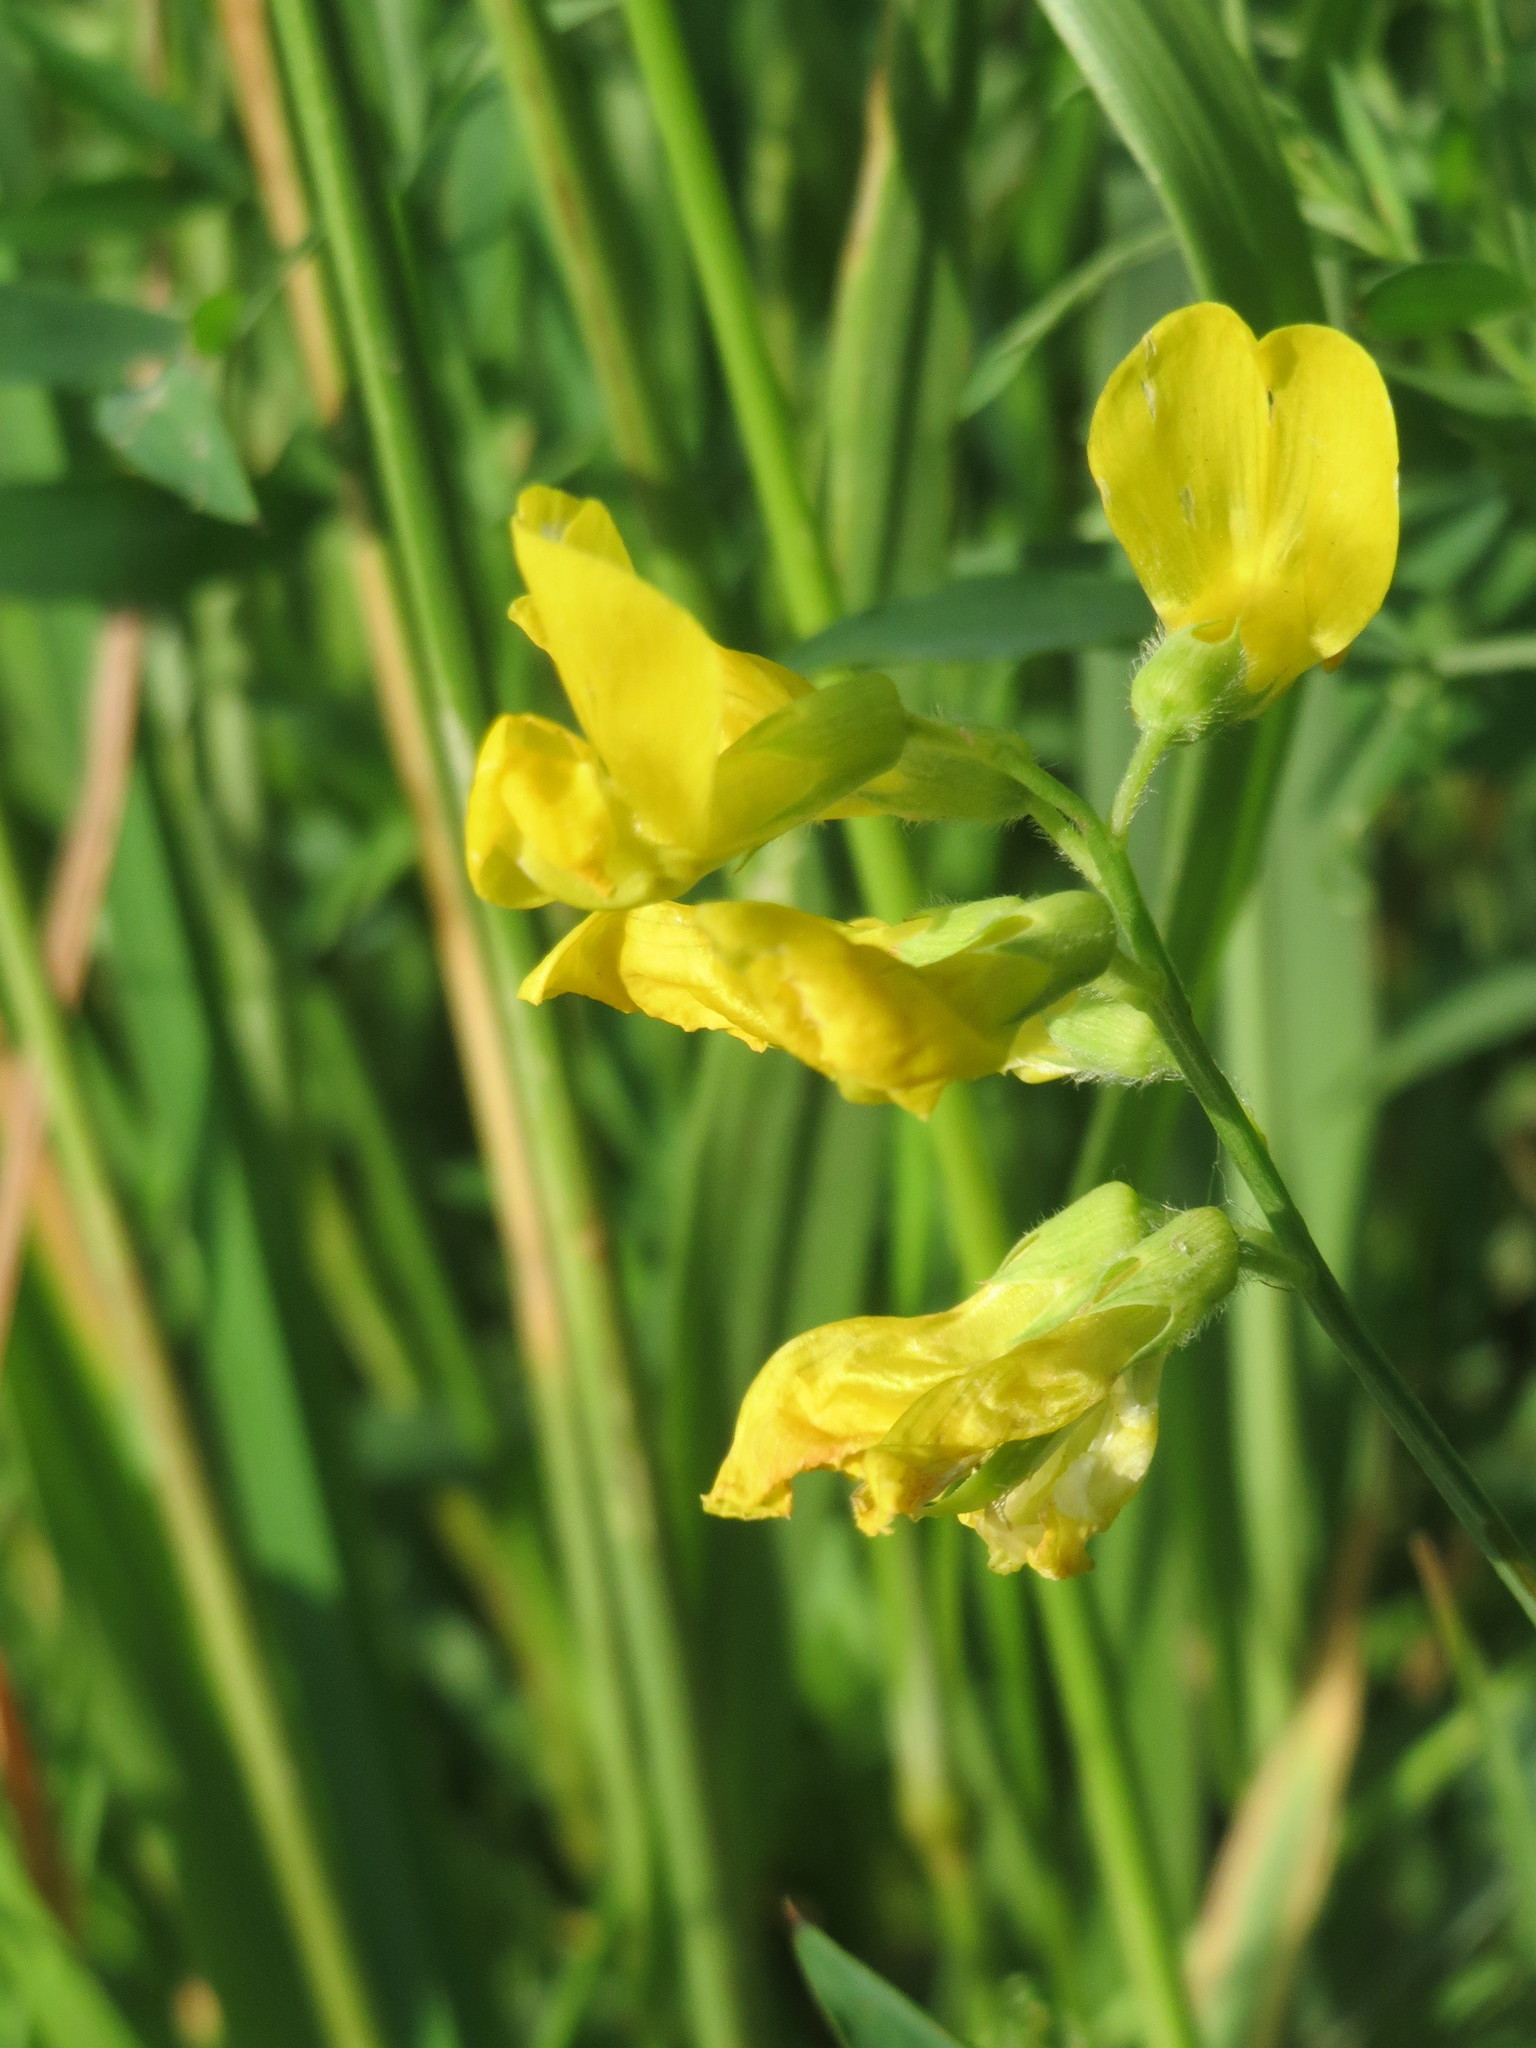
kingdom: Plantae
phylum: Tracheophyta
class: Magnoliopsida
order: Fabales
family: Fabaceae
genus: Lathyrus
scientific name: Lathyrus pratensis
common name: Meadow vetchling
